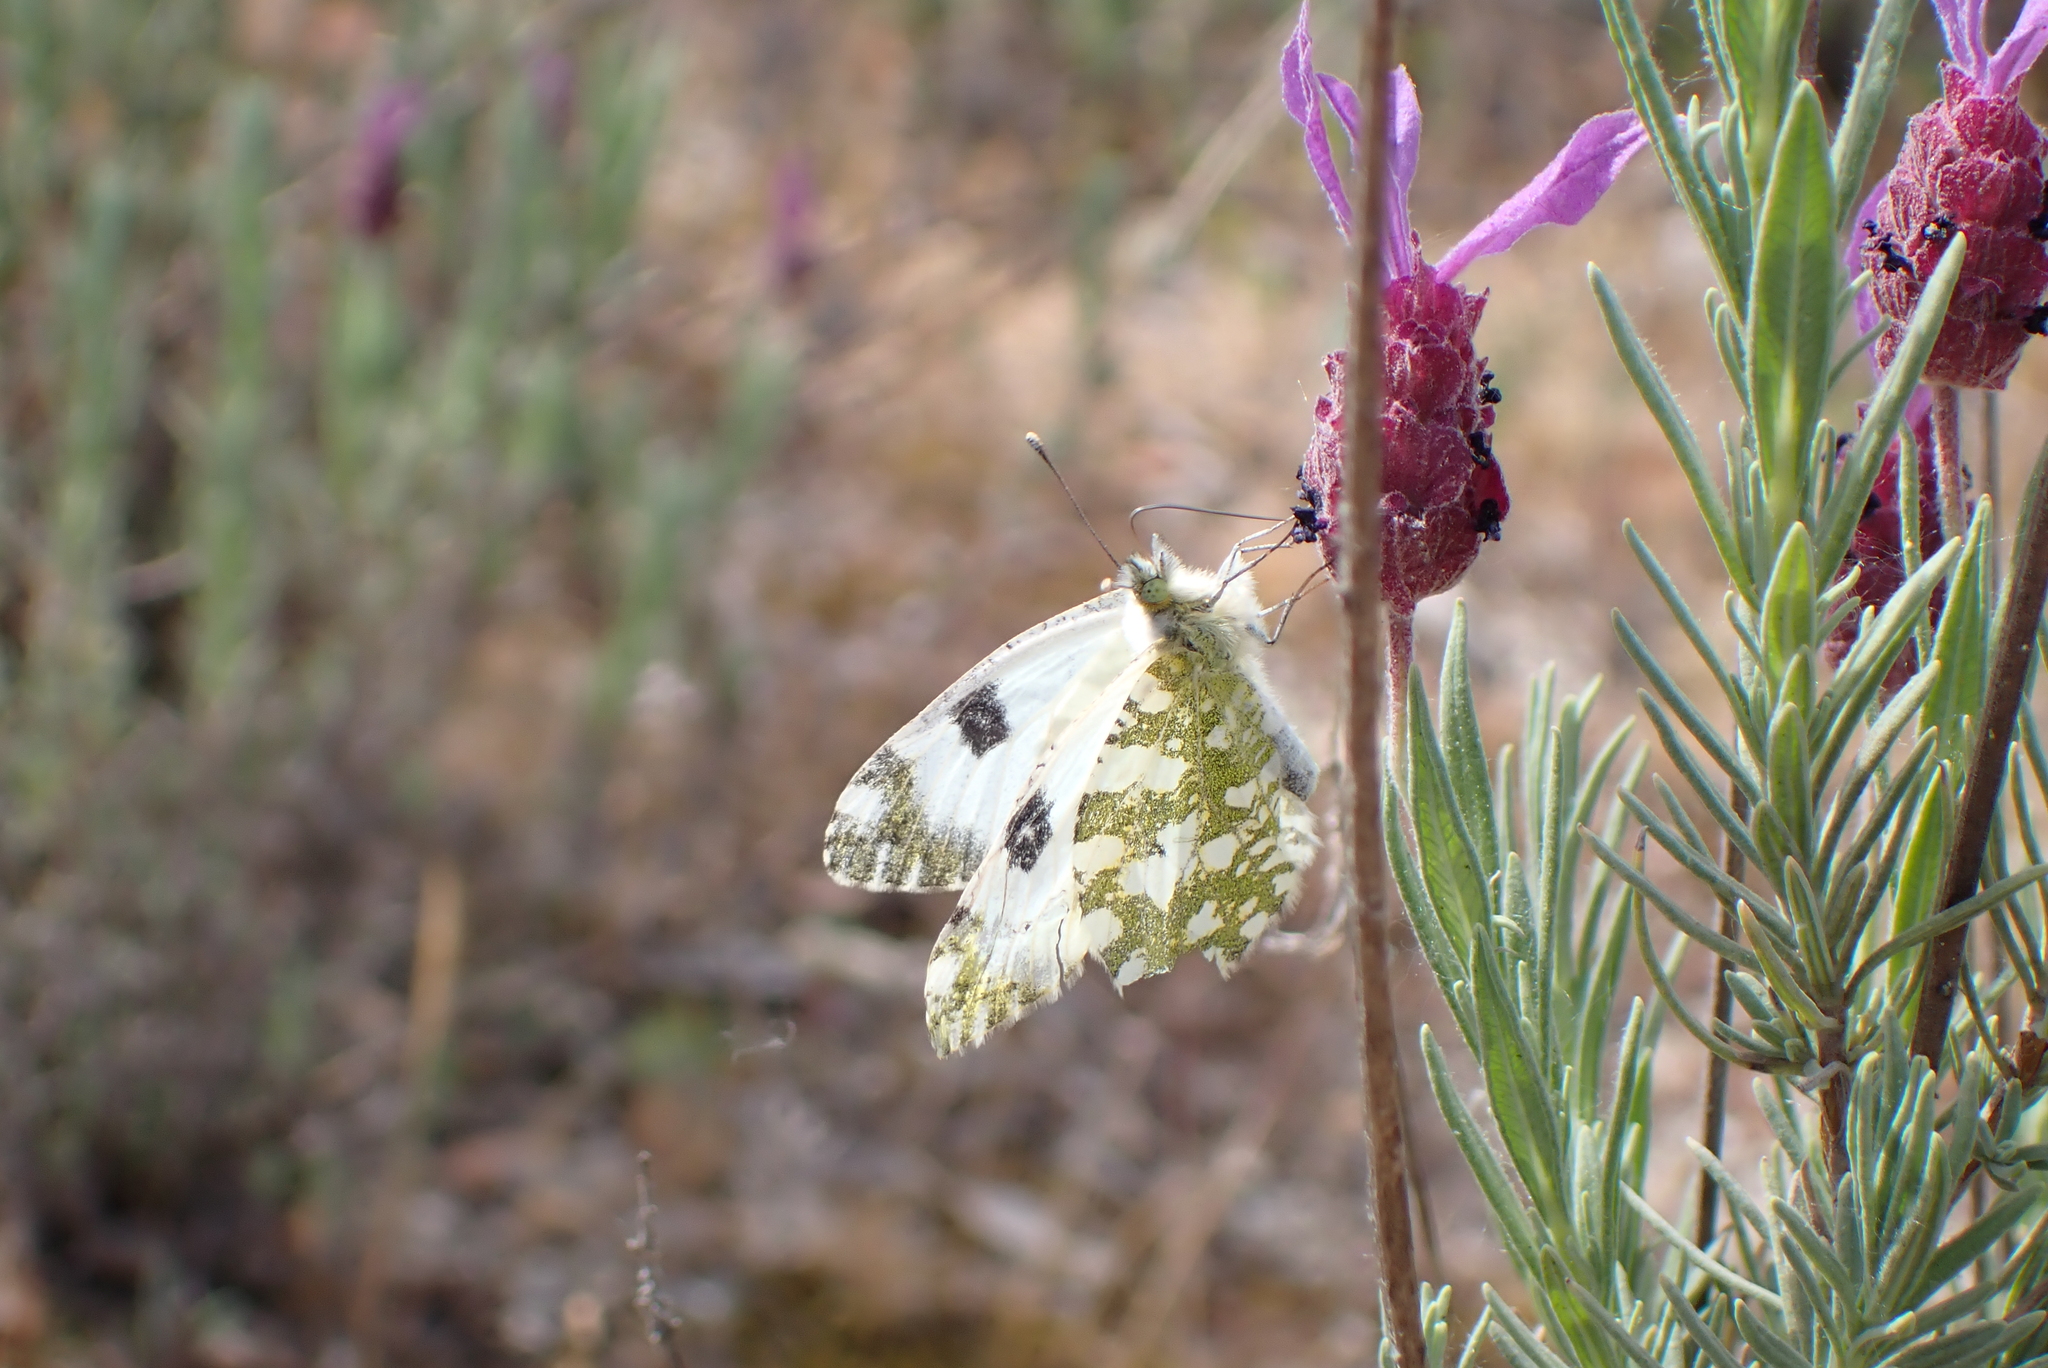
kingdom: Plantae
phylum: Tracheophyta
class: Magnoliopsida
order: Lamiales
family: Lamiaceae
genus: Lavandula
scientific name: Lavandula pedunculata
